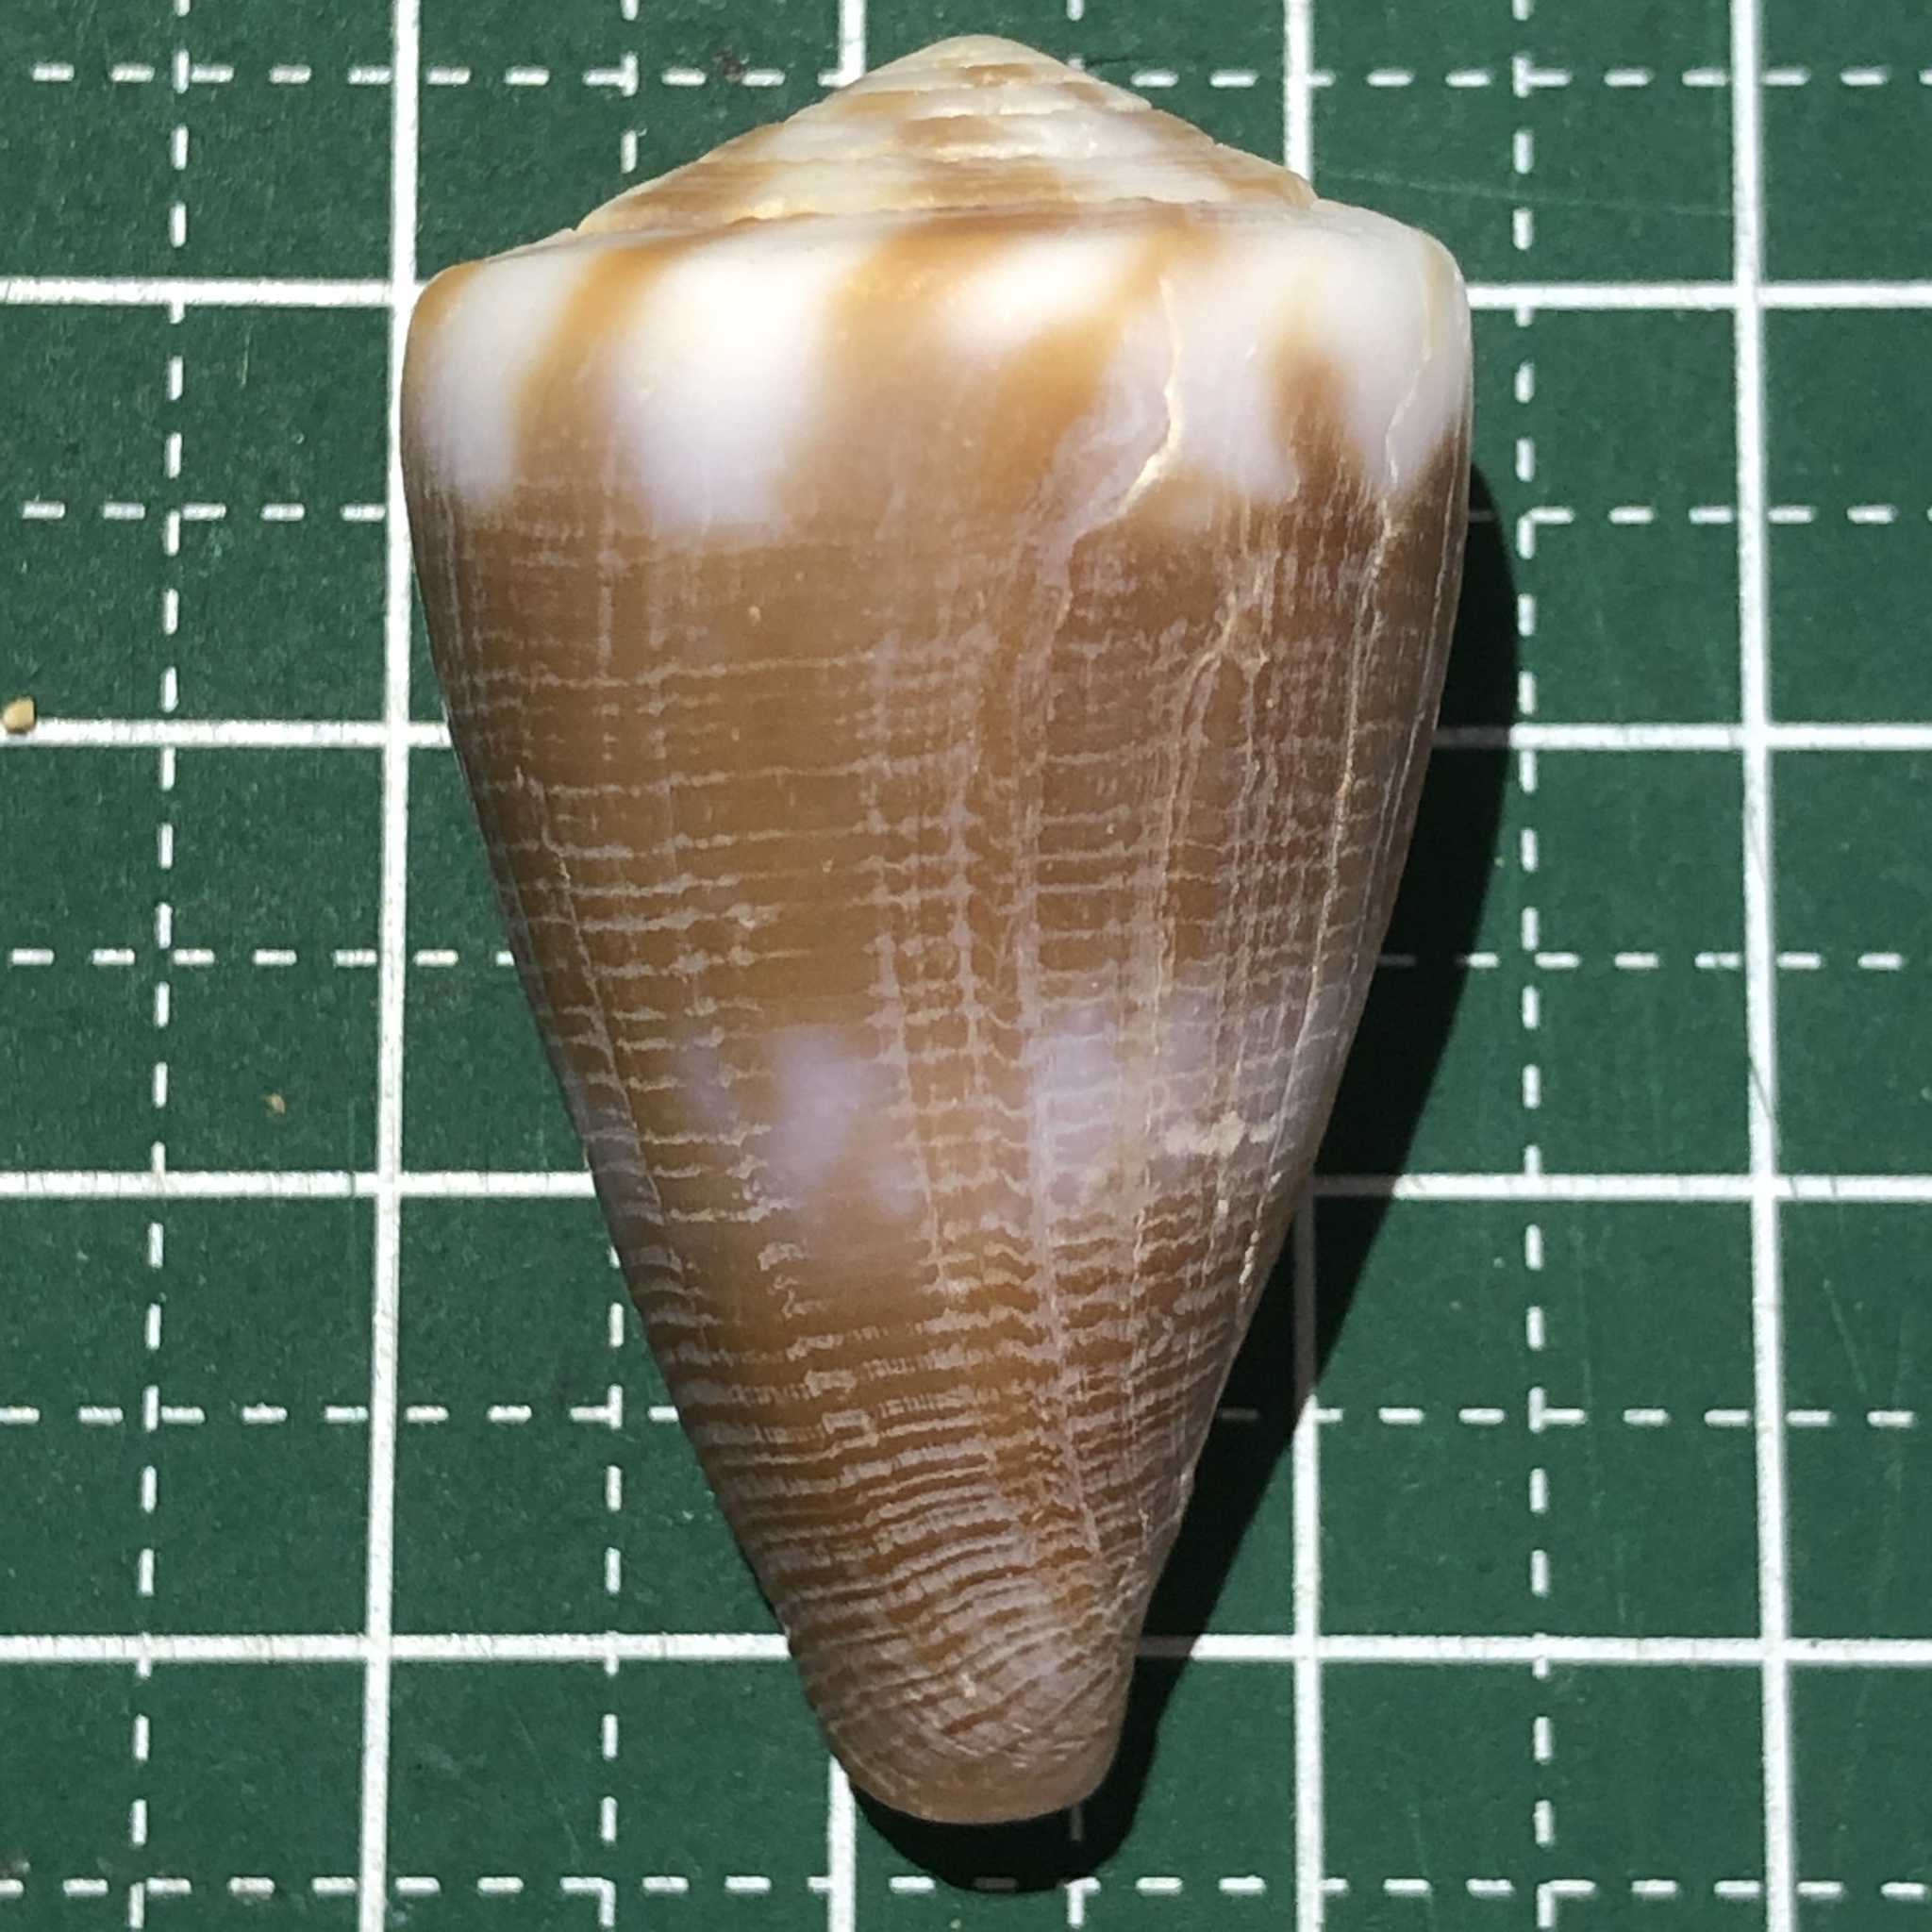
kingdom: Animalia
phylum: Mollusca
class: Gastropoda
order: Neogastropoda
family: Conidae
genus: Conus
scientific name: Conus rattus
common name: Rat cone
